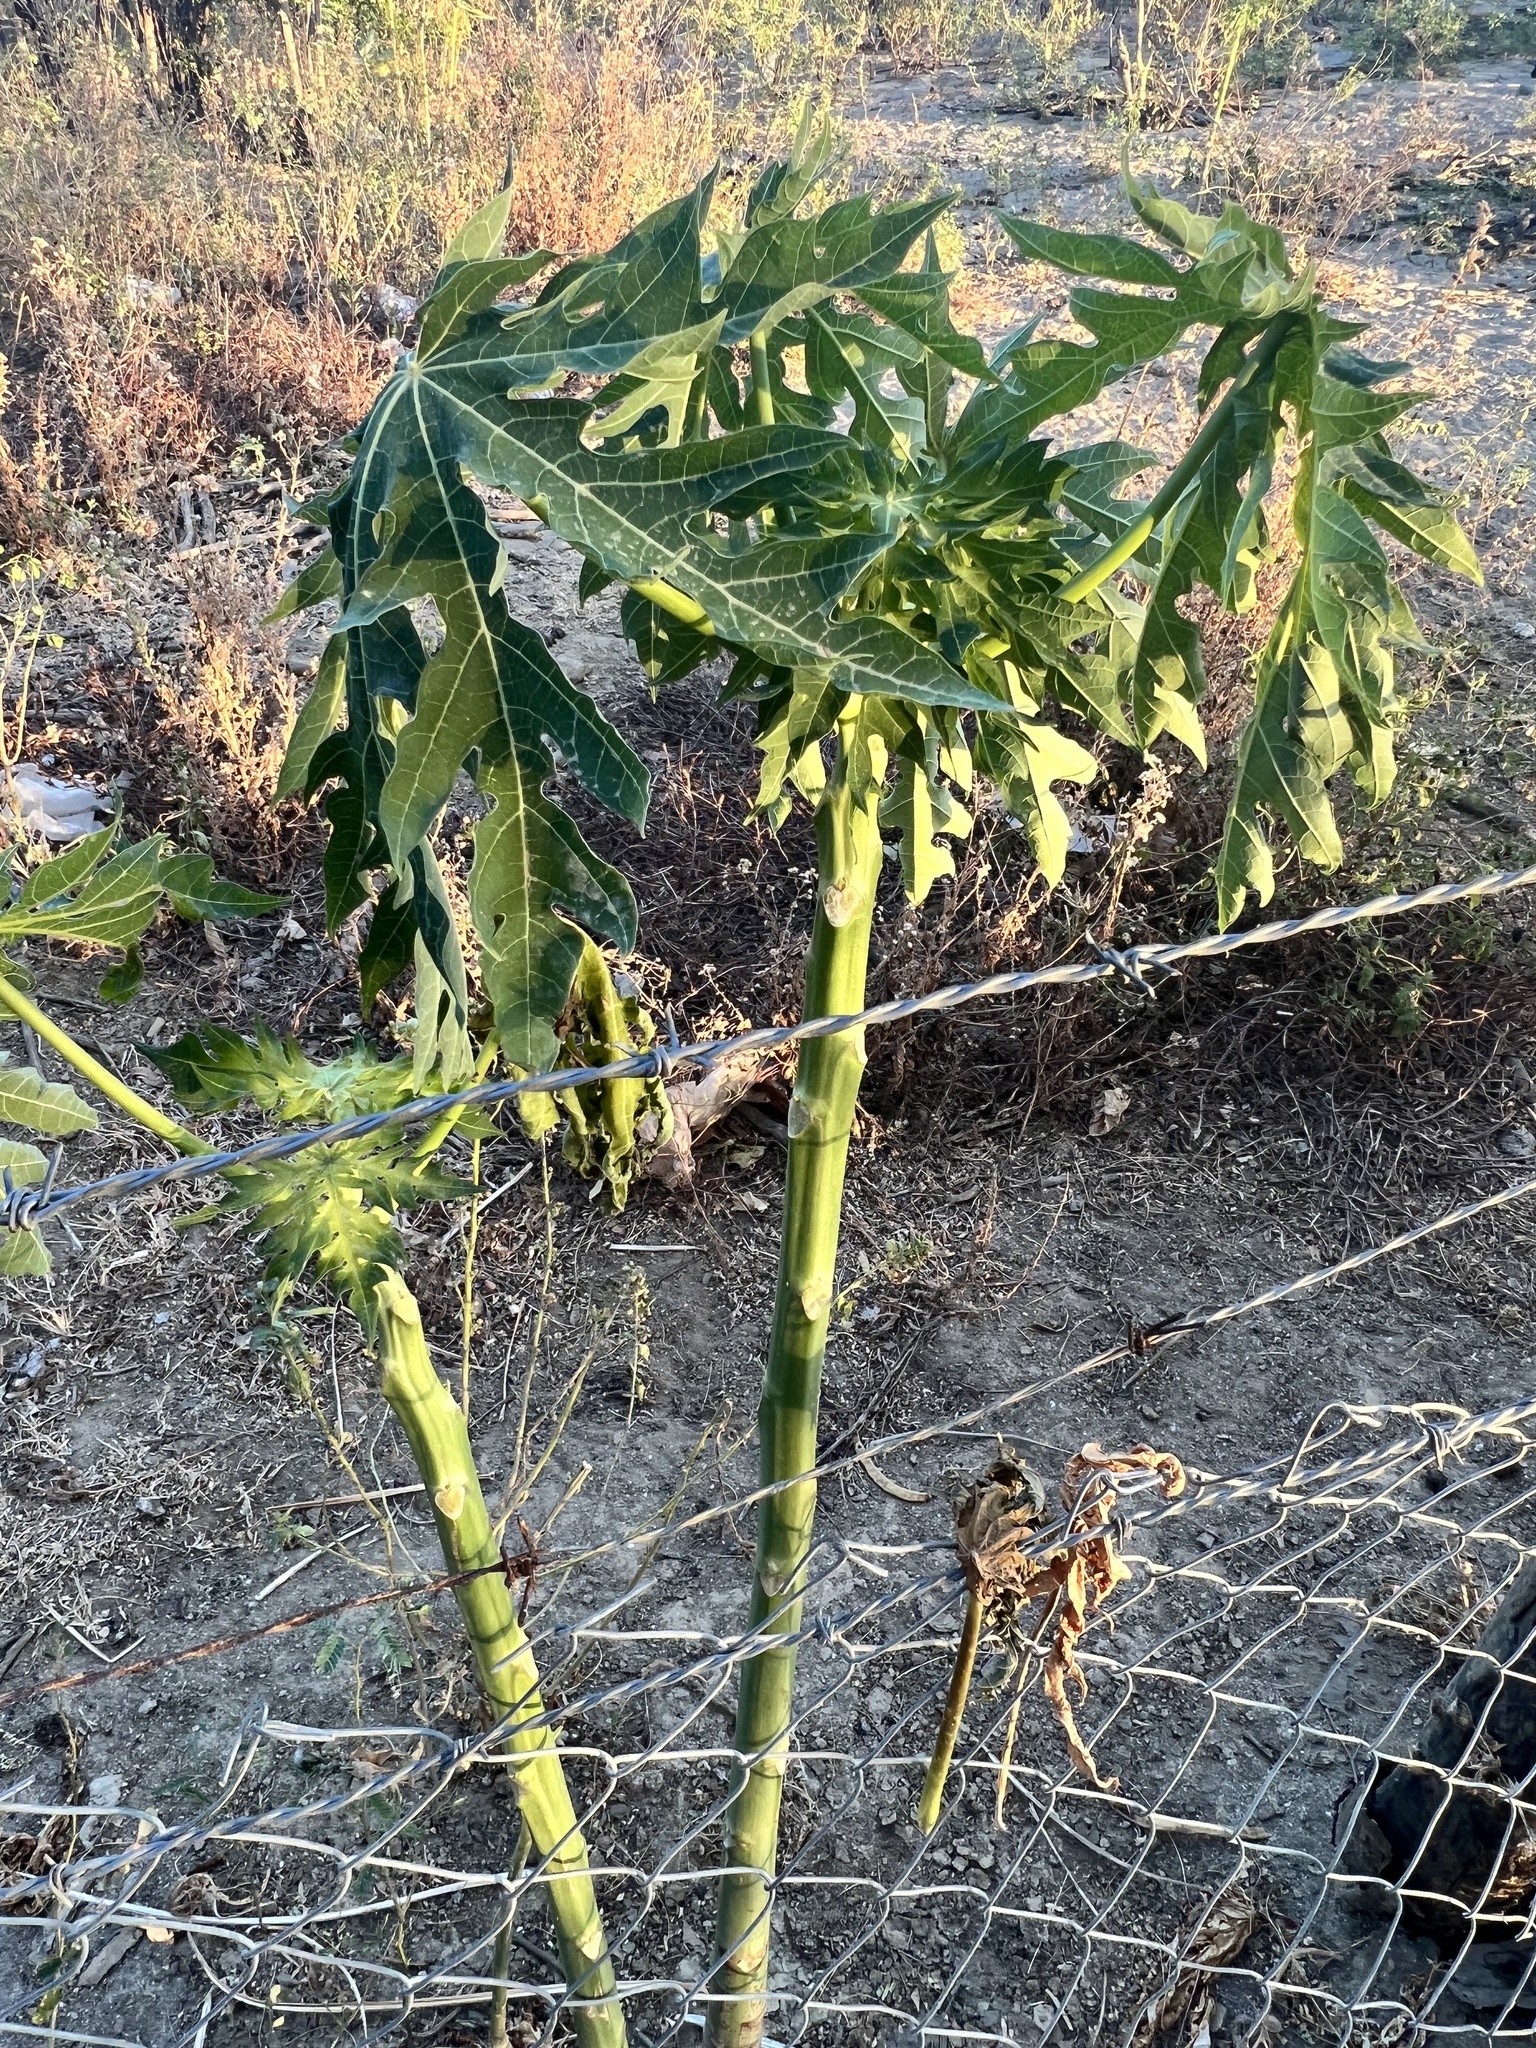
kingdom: Plantae
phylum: Tracheophyta
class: Magnoliopsida
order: Brassicales
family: Caricaceae
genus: Carica
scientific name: Carica papaya
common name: Papaya
